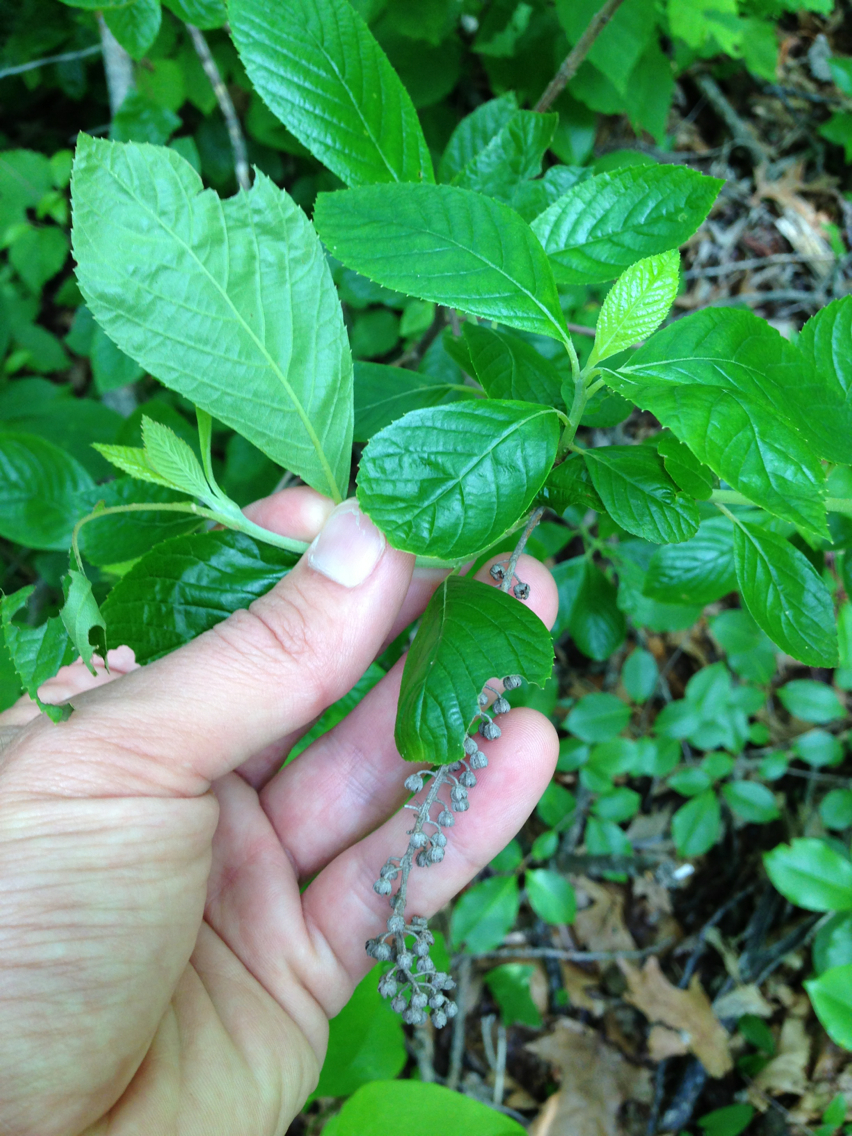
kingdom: Plantae
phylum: Tracheophyta
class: Magnoliopsida
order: Ericales
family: Clethraceae
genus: Clethra
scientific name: Clethra alnifolia
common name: Sweet pepperbush
